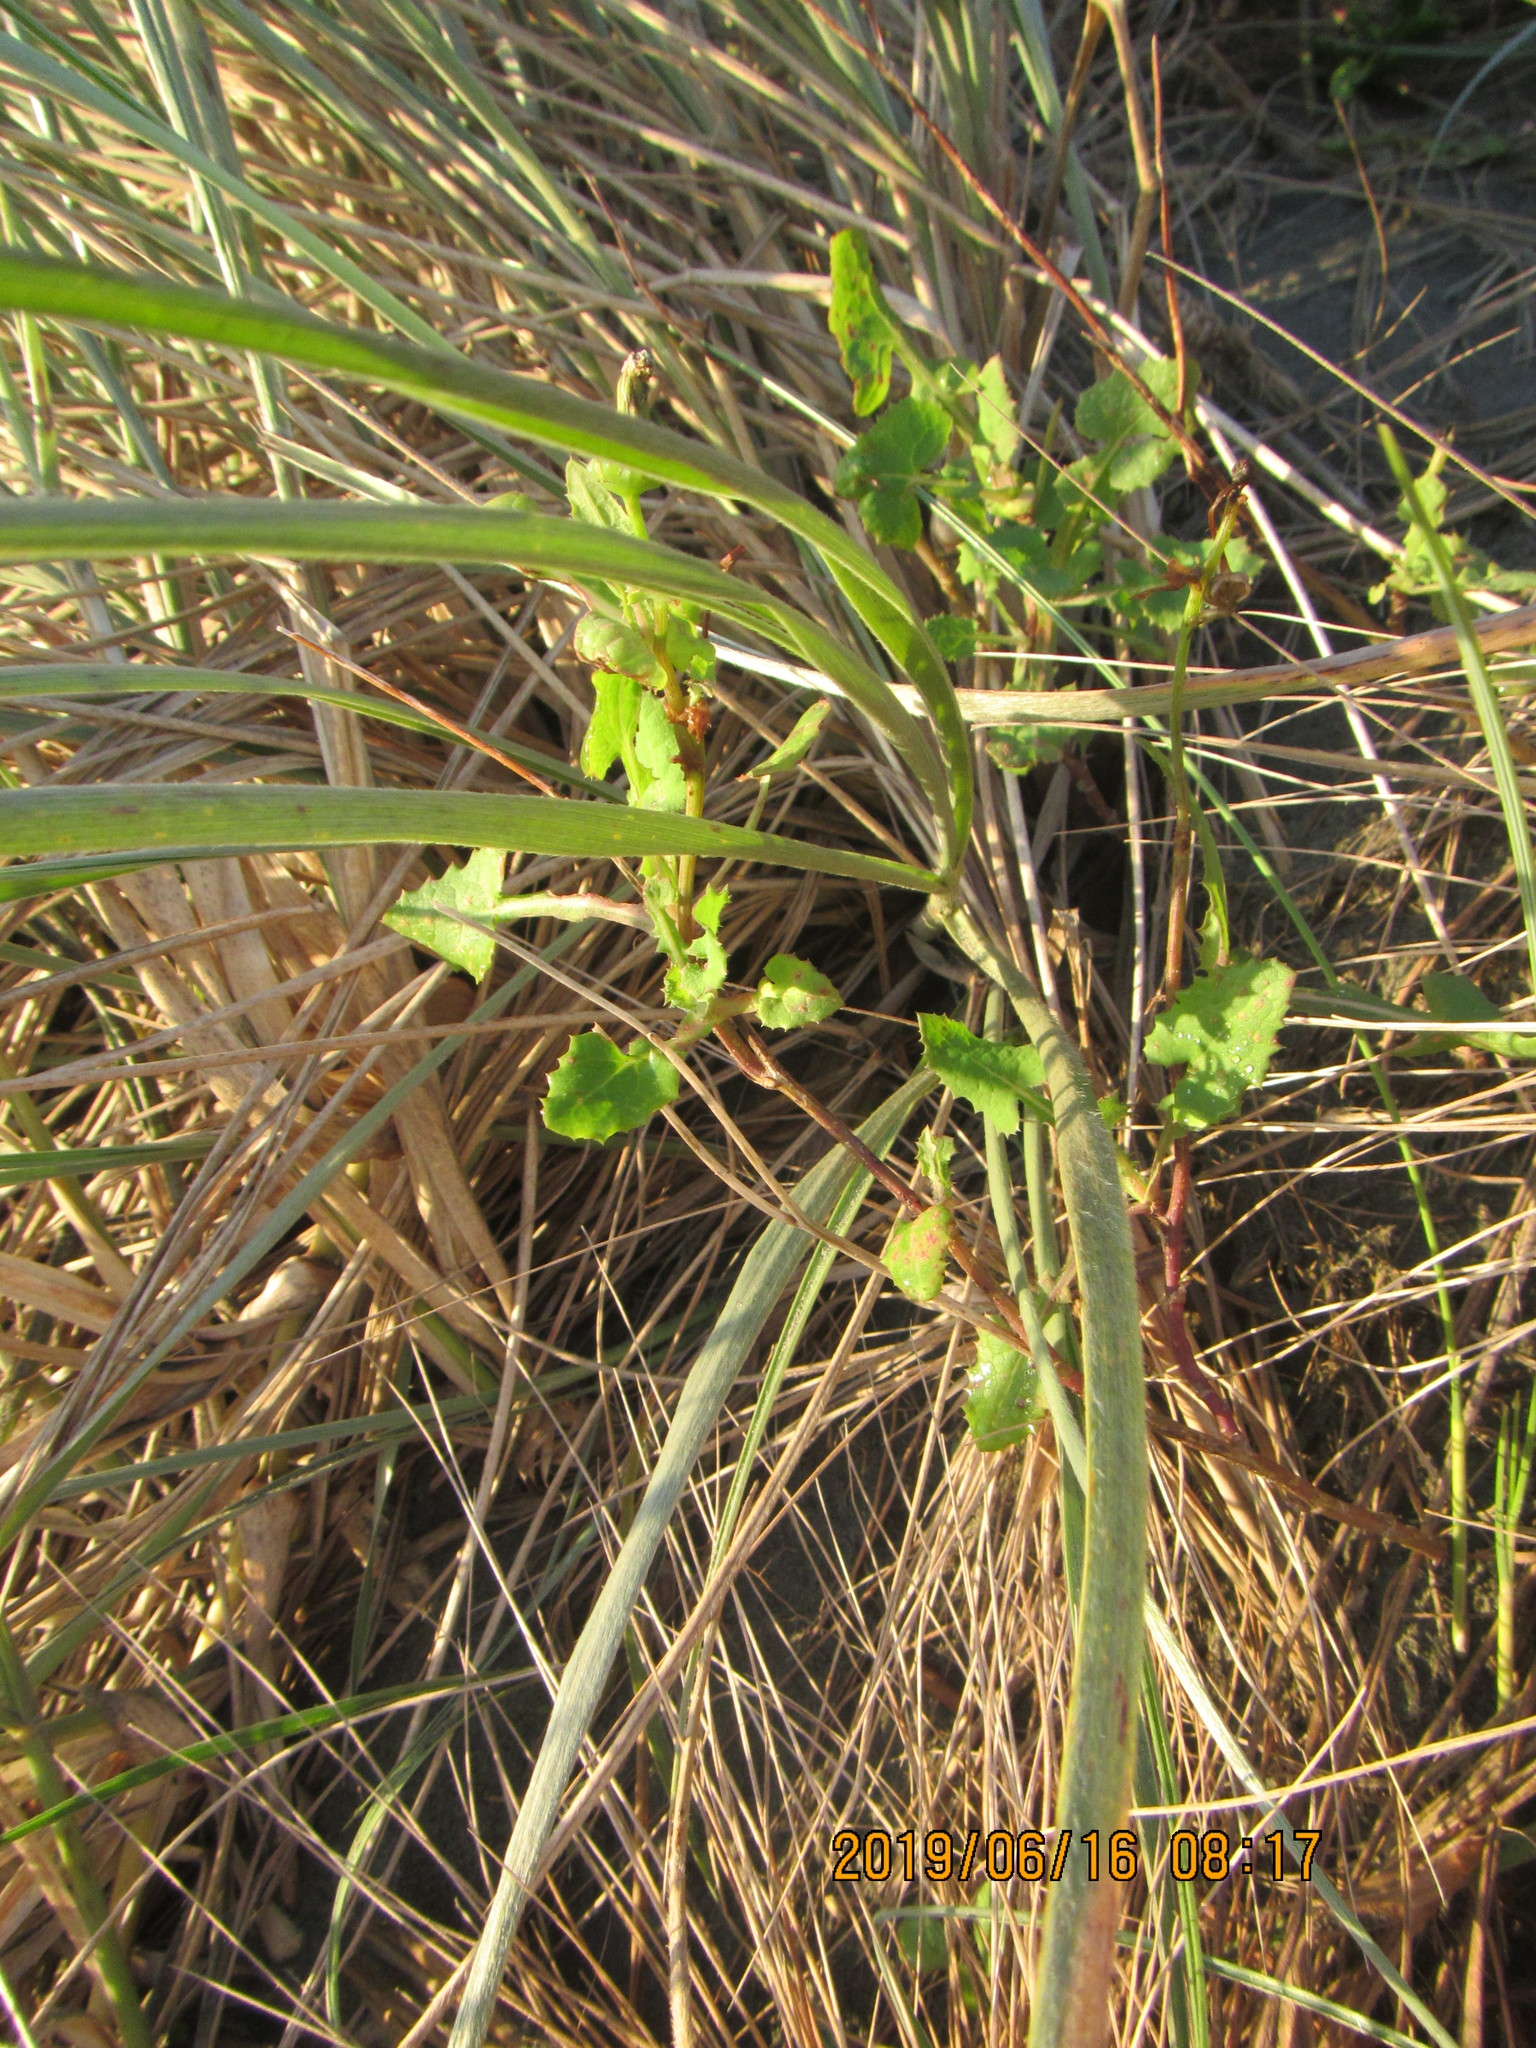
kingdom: Plantae
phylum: Tracheophyta
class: Magnoliopsida
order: Asterales
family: Asteraceae
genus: Sonchus
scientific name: Sonchus oleraceus
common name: Common sowthistle
